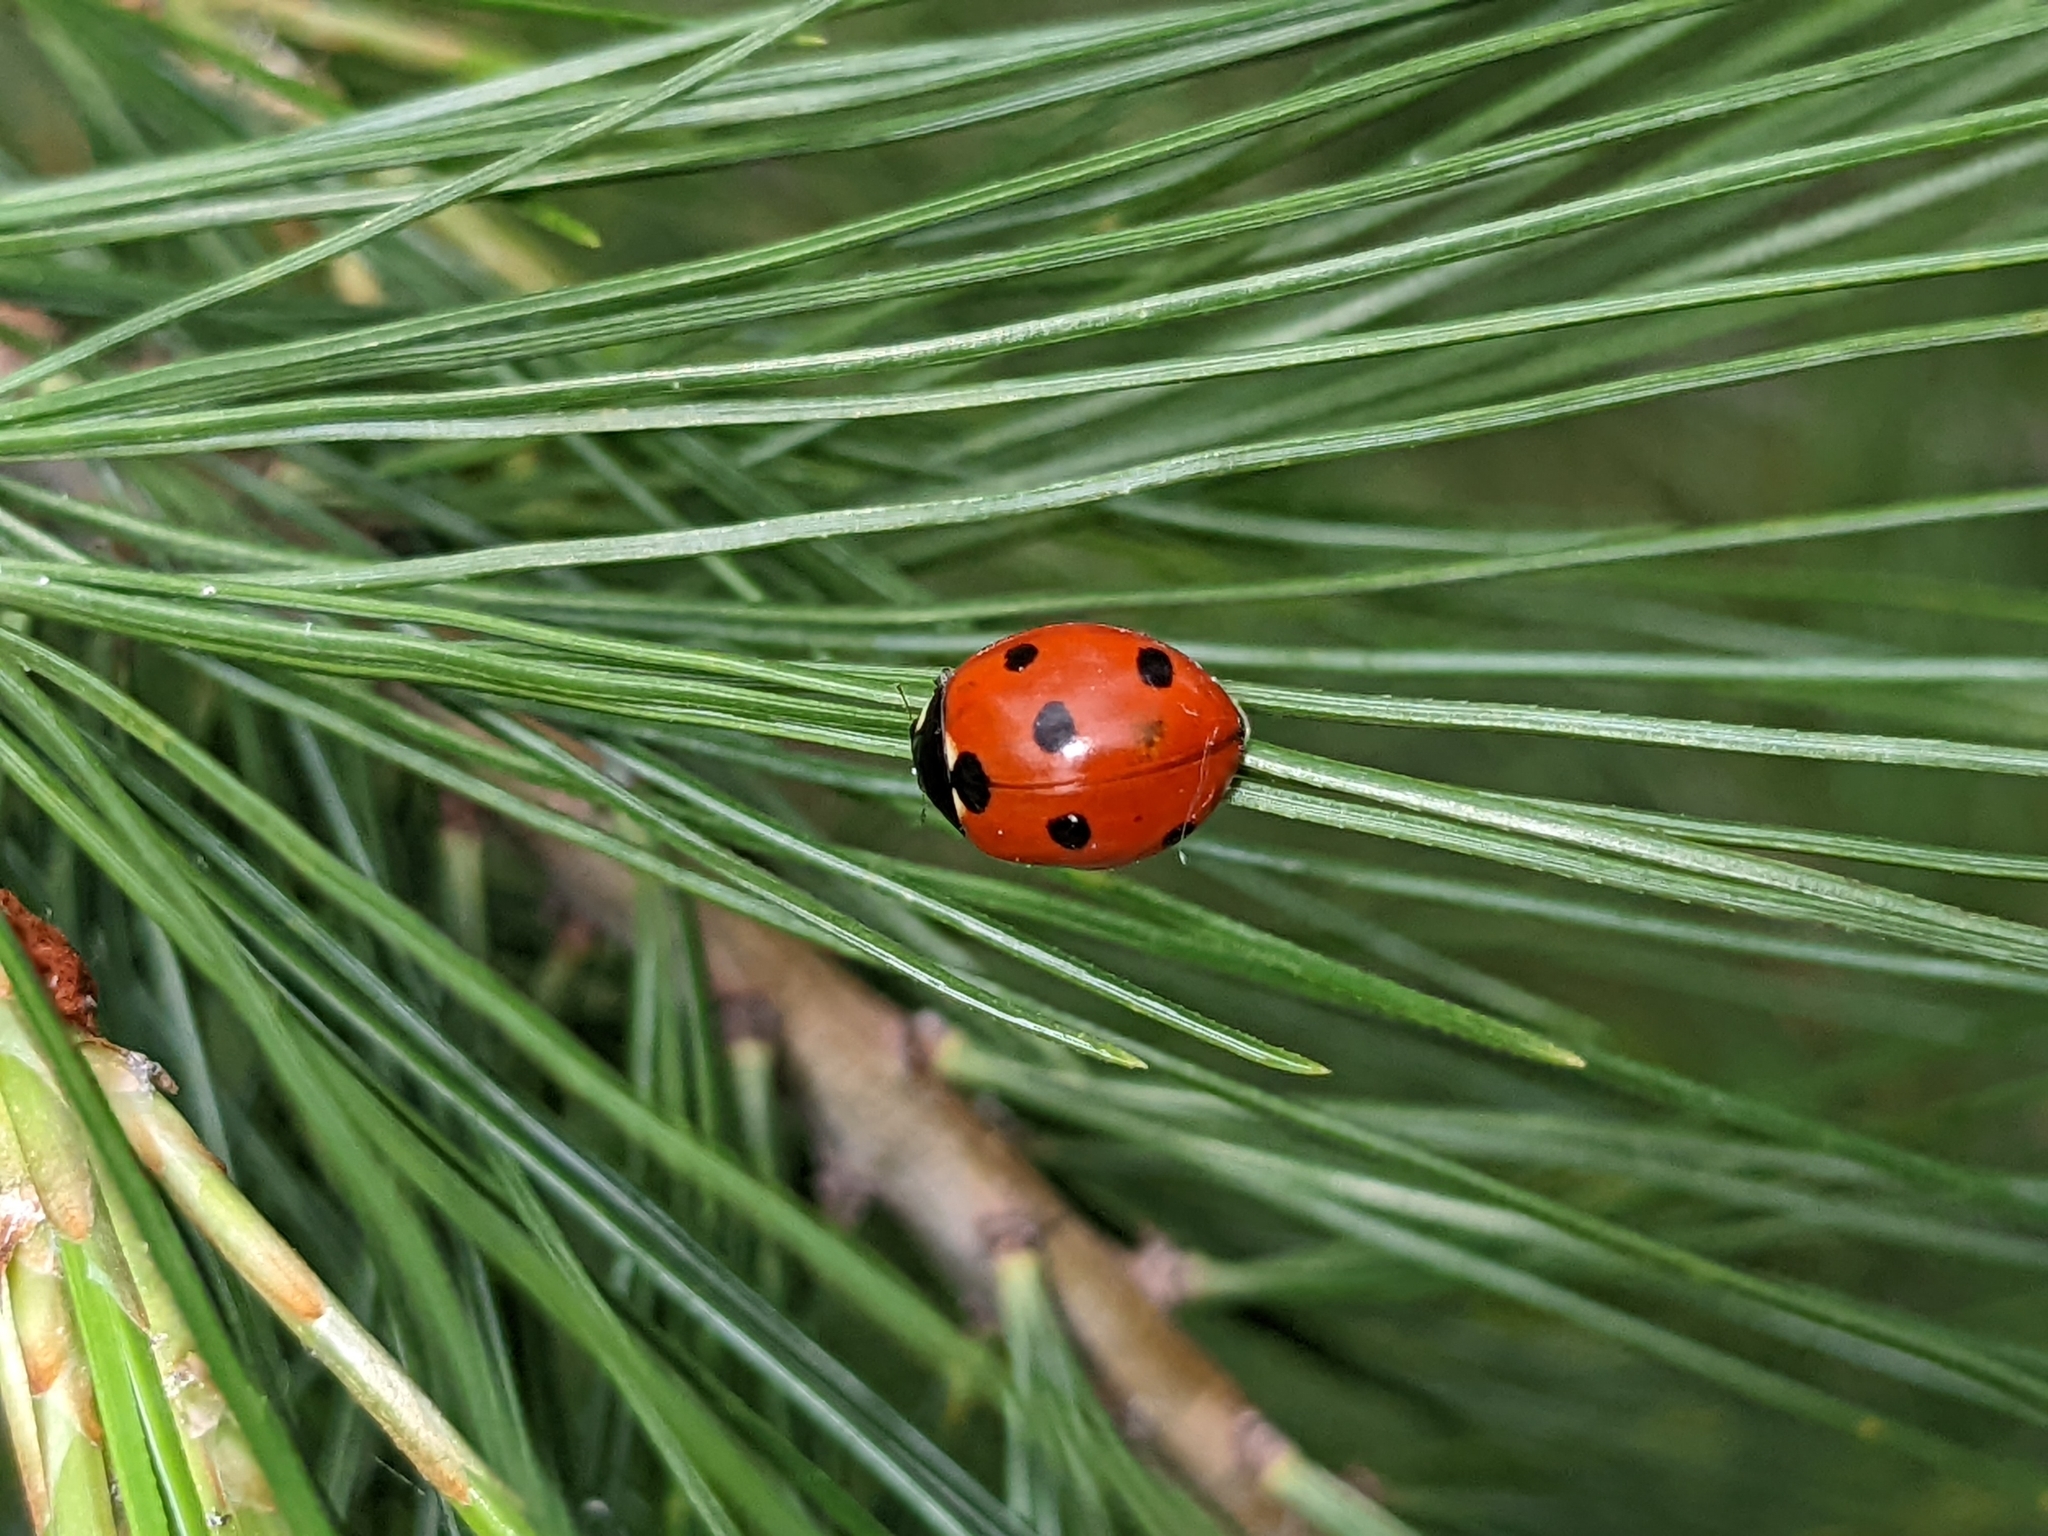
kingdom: Animalia
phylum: Arthropoda
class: Insecta
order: Coleoptera
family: Coccinellidae
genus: Coccinella
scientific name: Coccinella septempunctata
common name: Sevenspotted lady beetle
